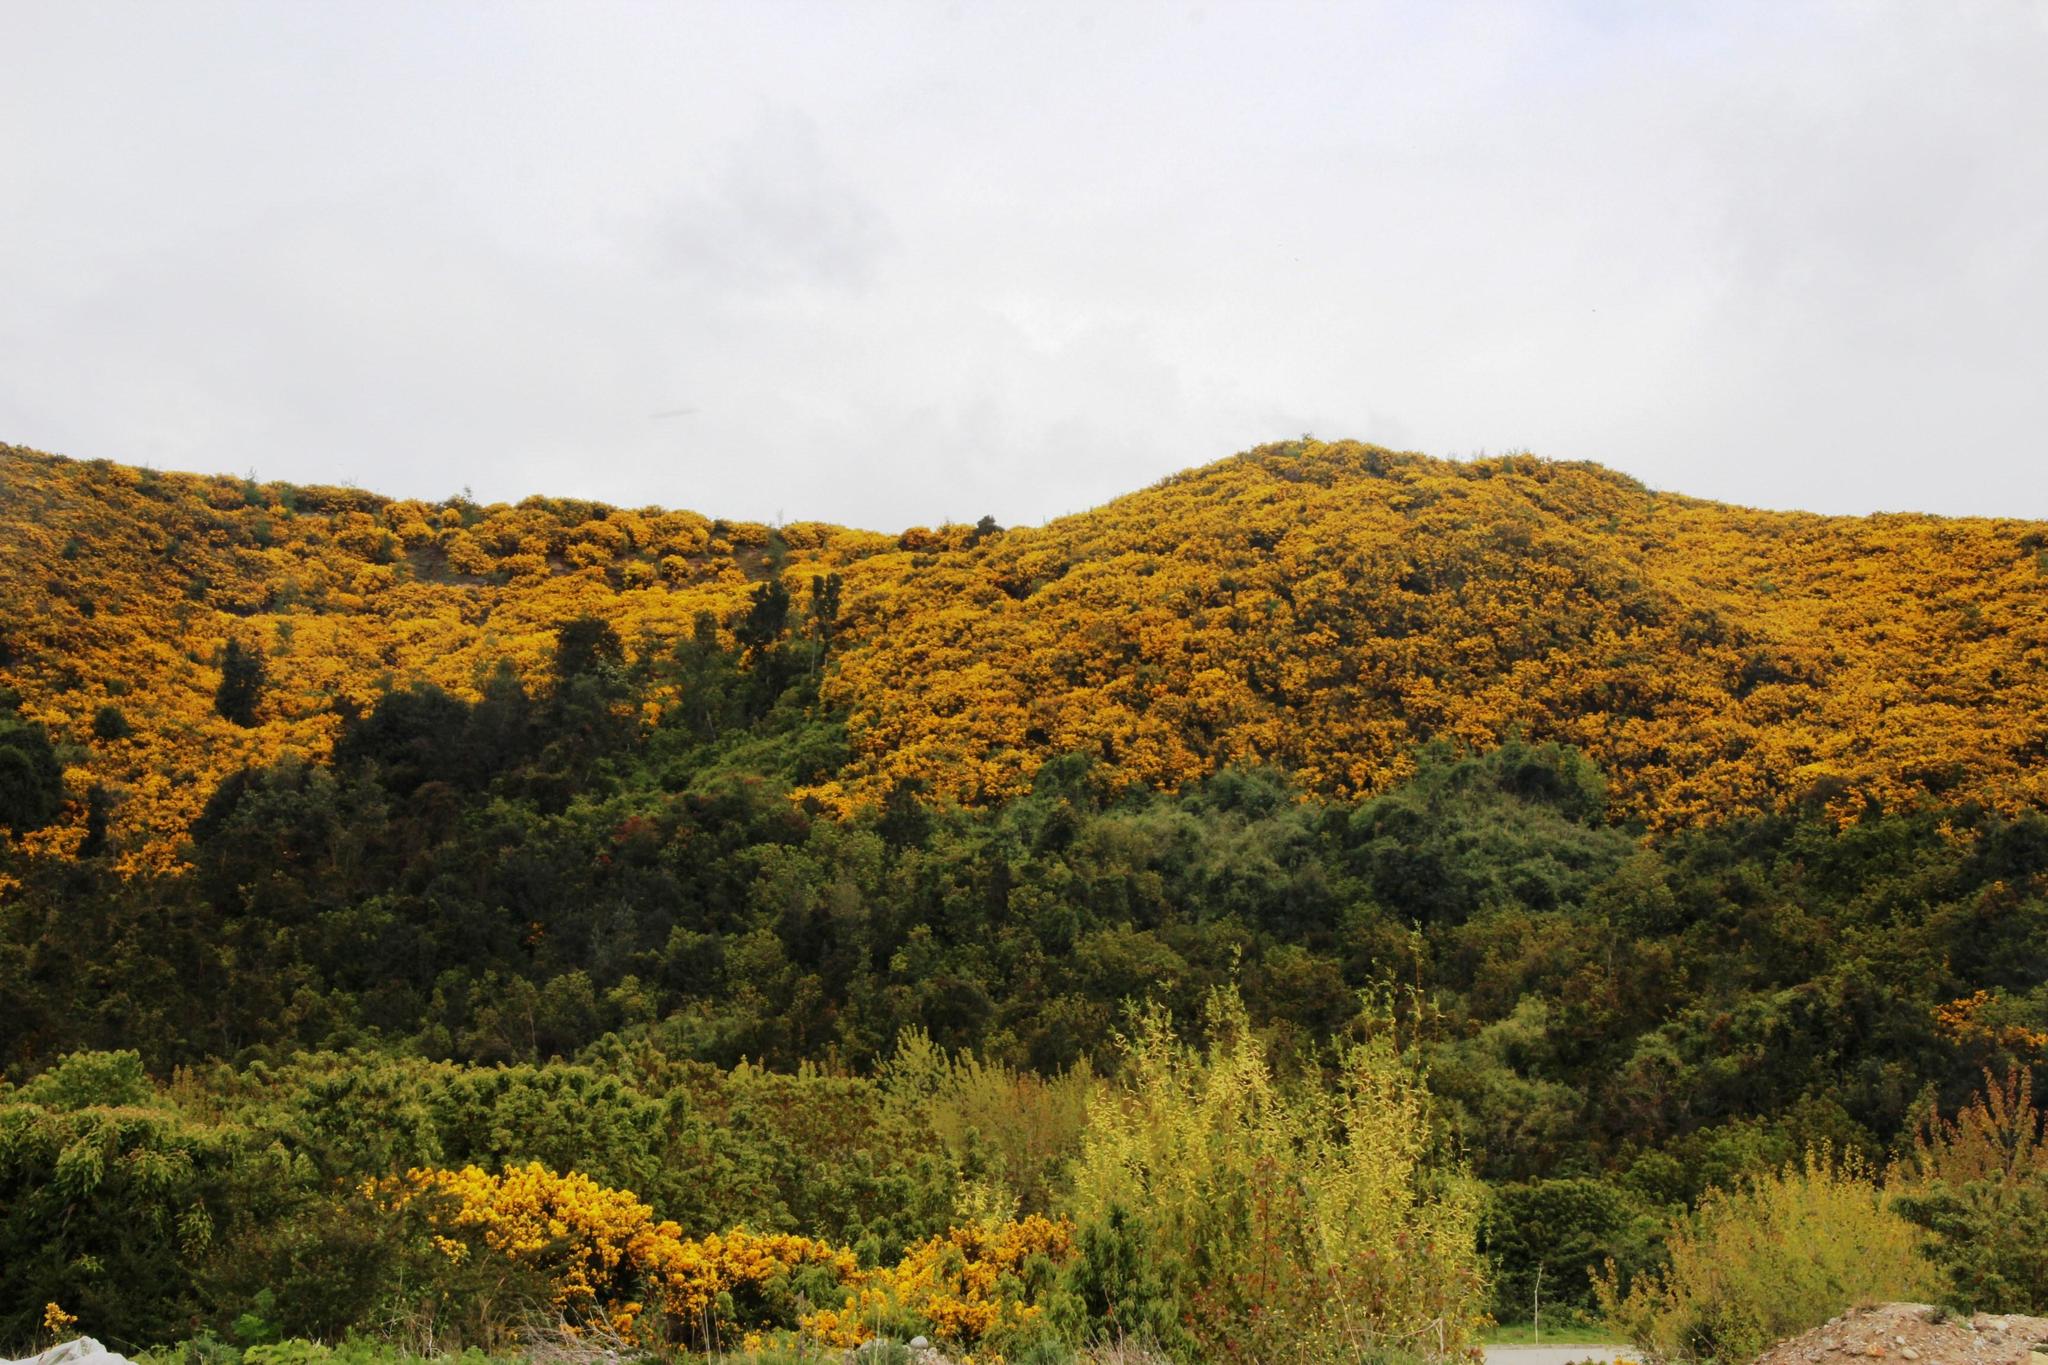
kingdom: Plantae
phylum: Tracheophyta
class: Magnoliopsida
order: Fabales
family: Fabaceae
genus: Ulex
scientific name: Ulex europaeus
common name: Common gorse
